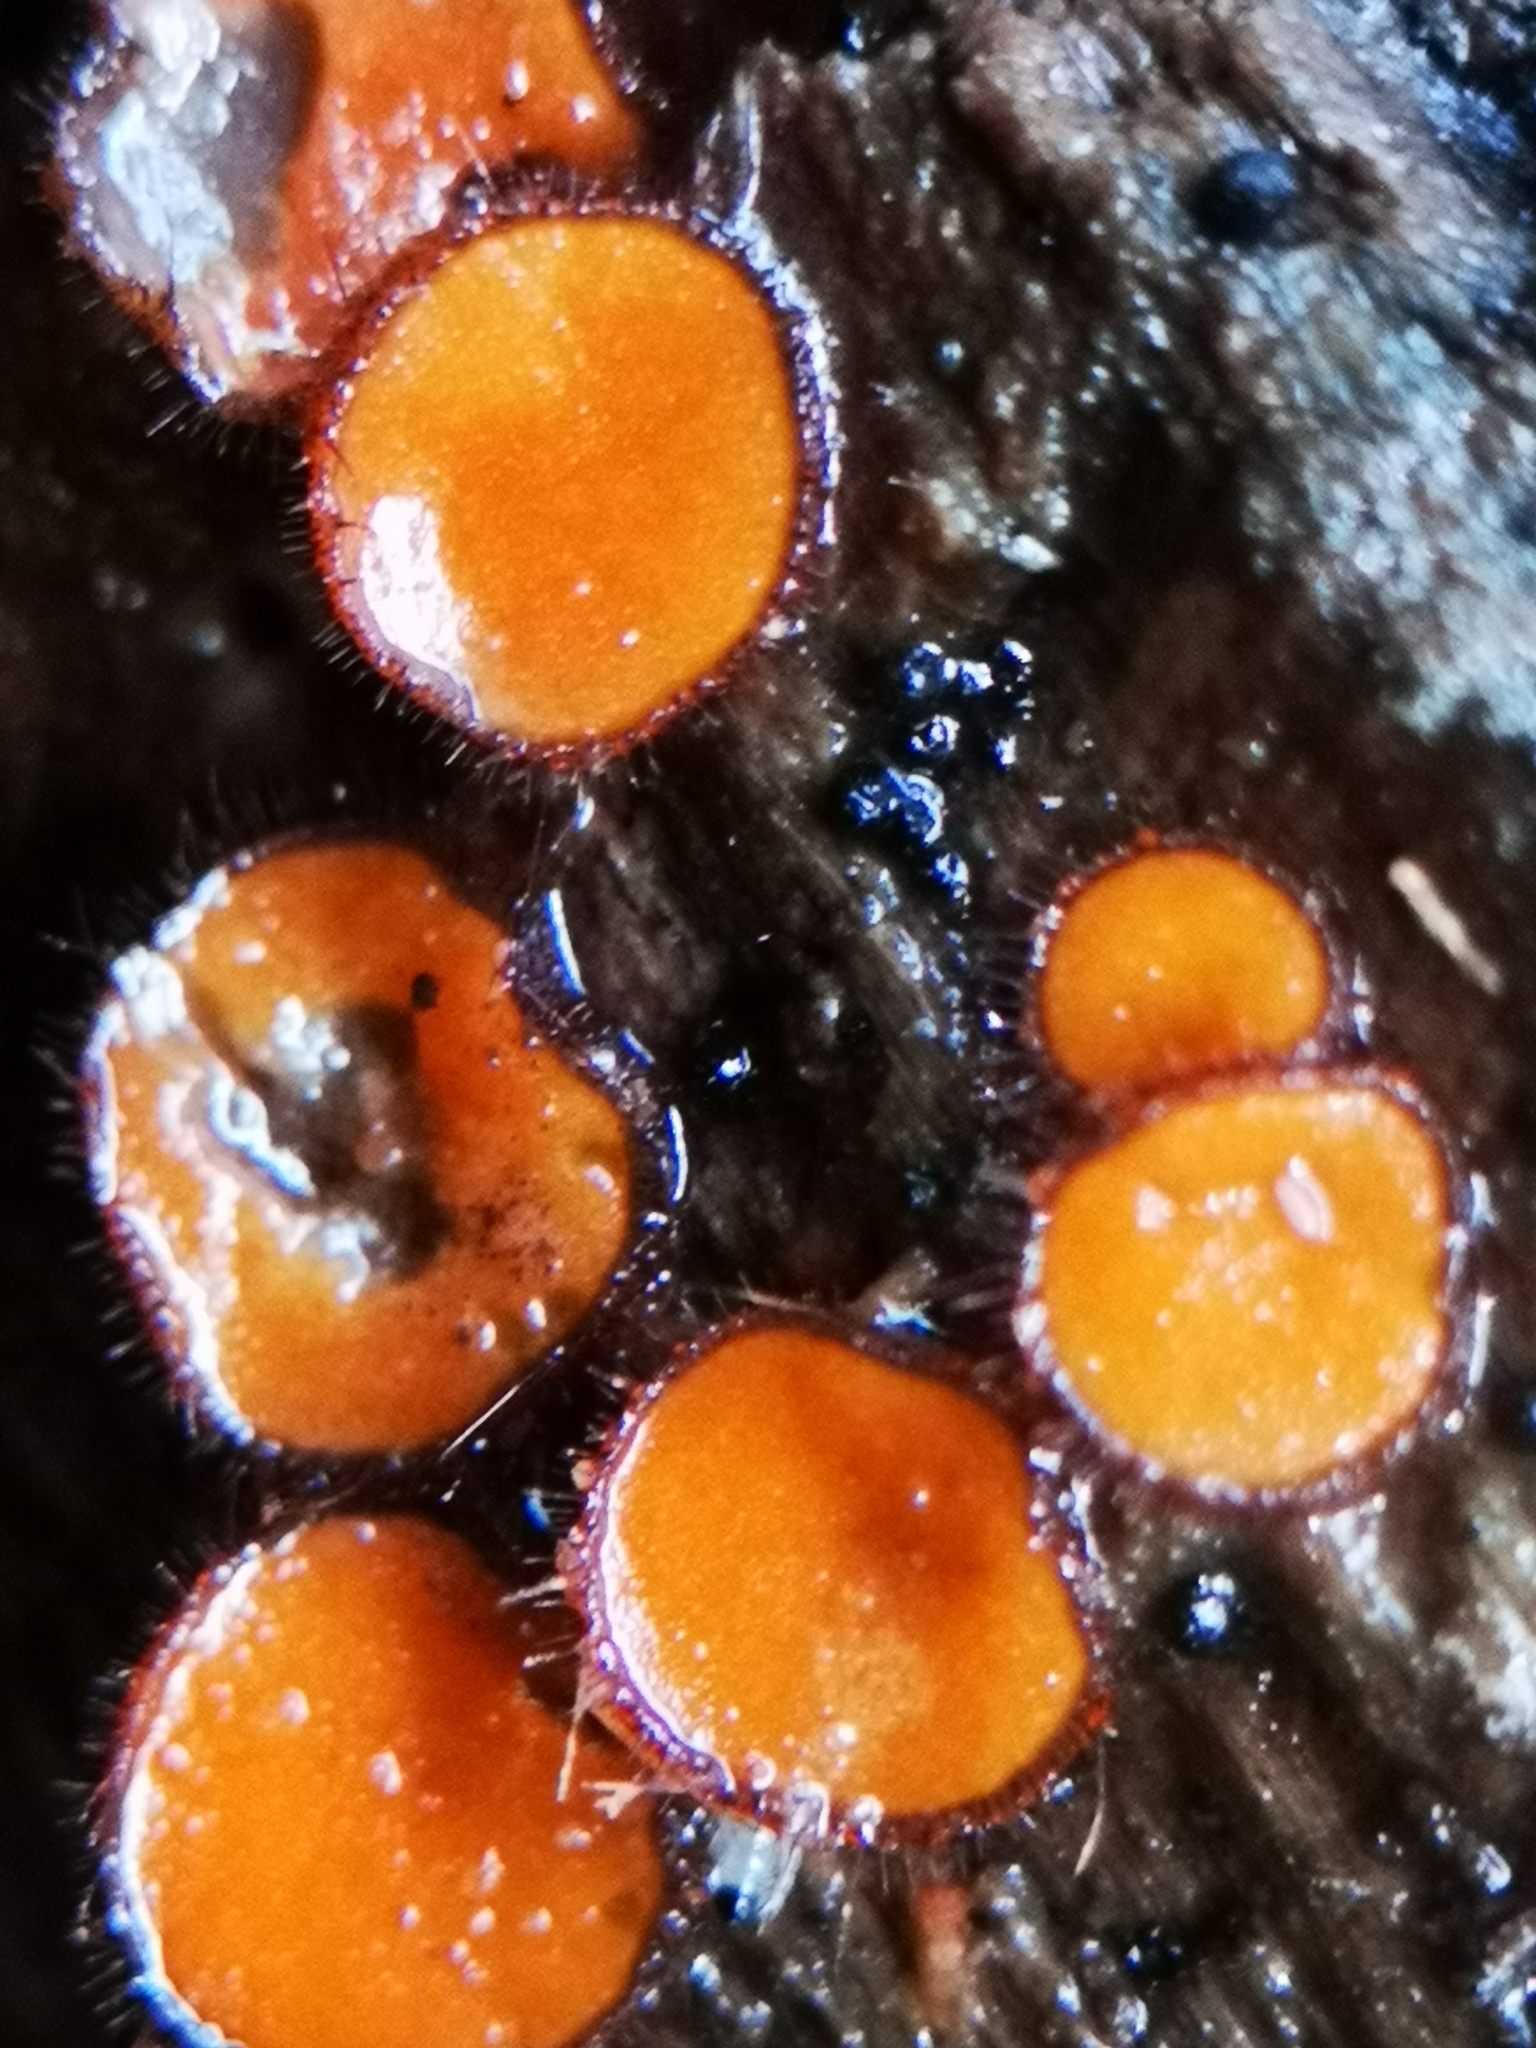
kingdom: Fungi
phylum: Ascomycota
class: Pezizomycetes
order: Pezizales
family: Pyronemataceae
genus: Scutellinia
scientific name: Scutellinia
